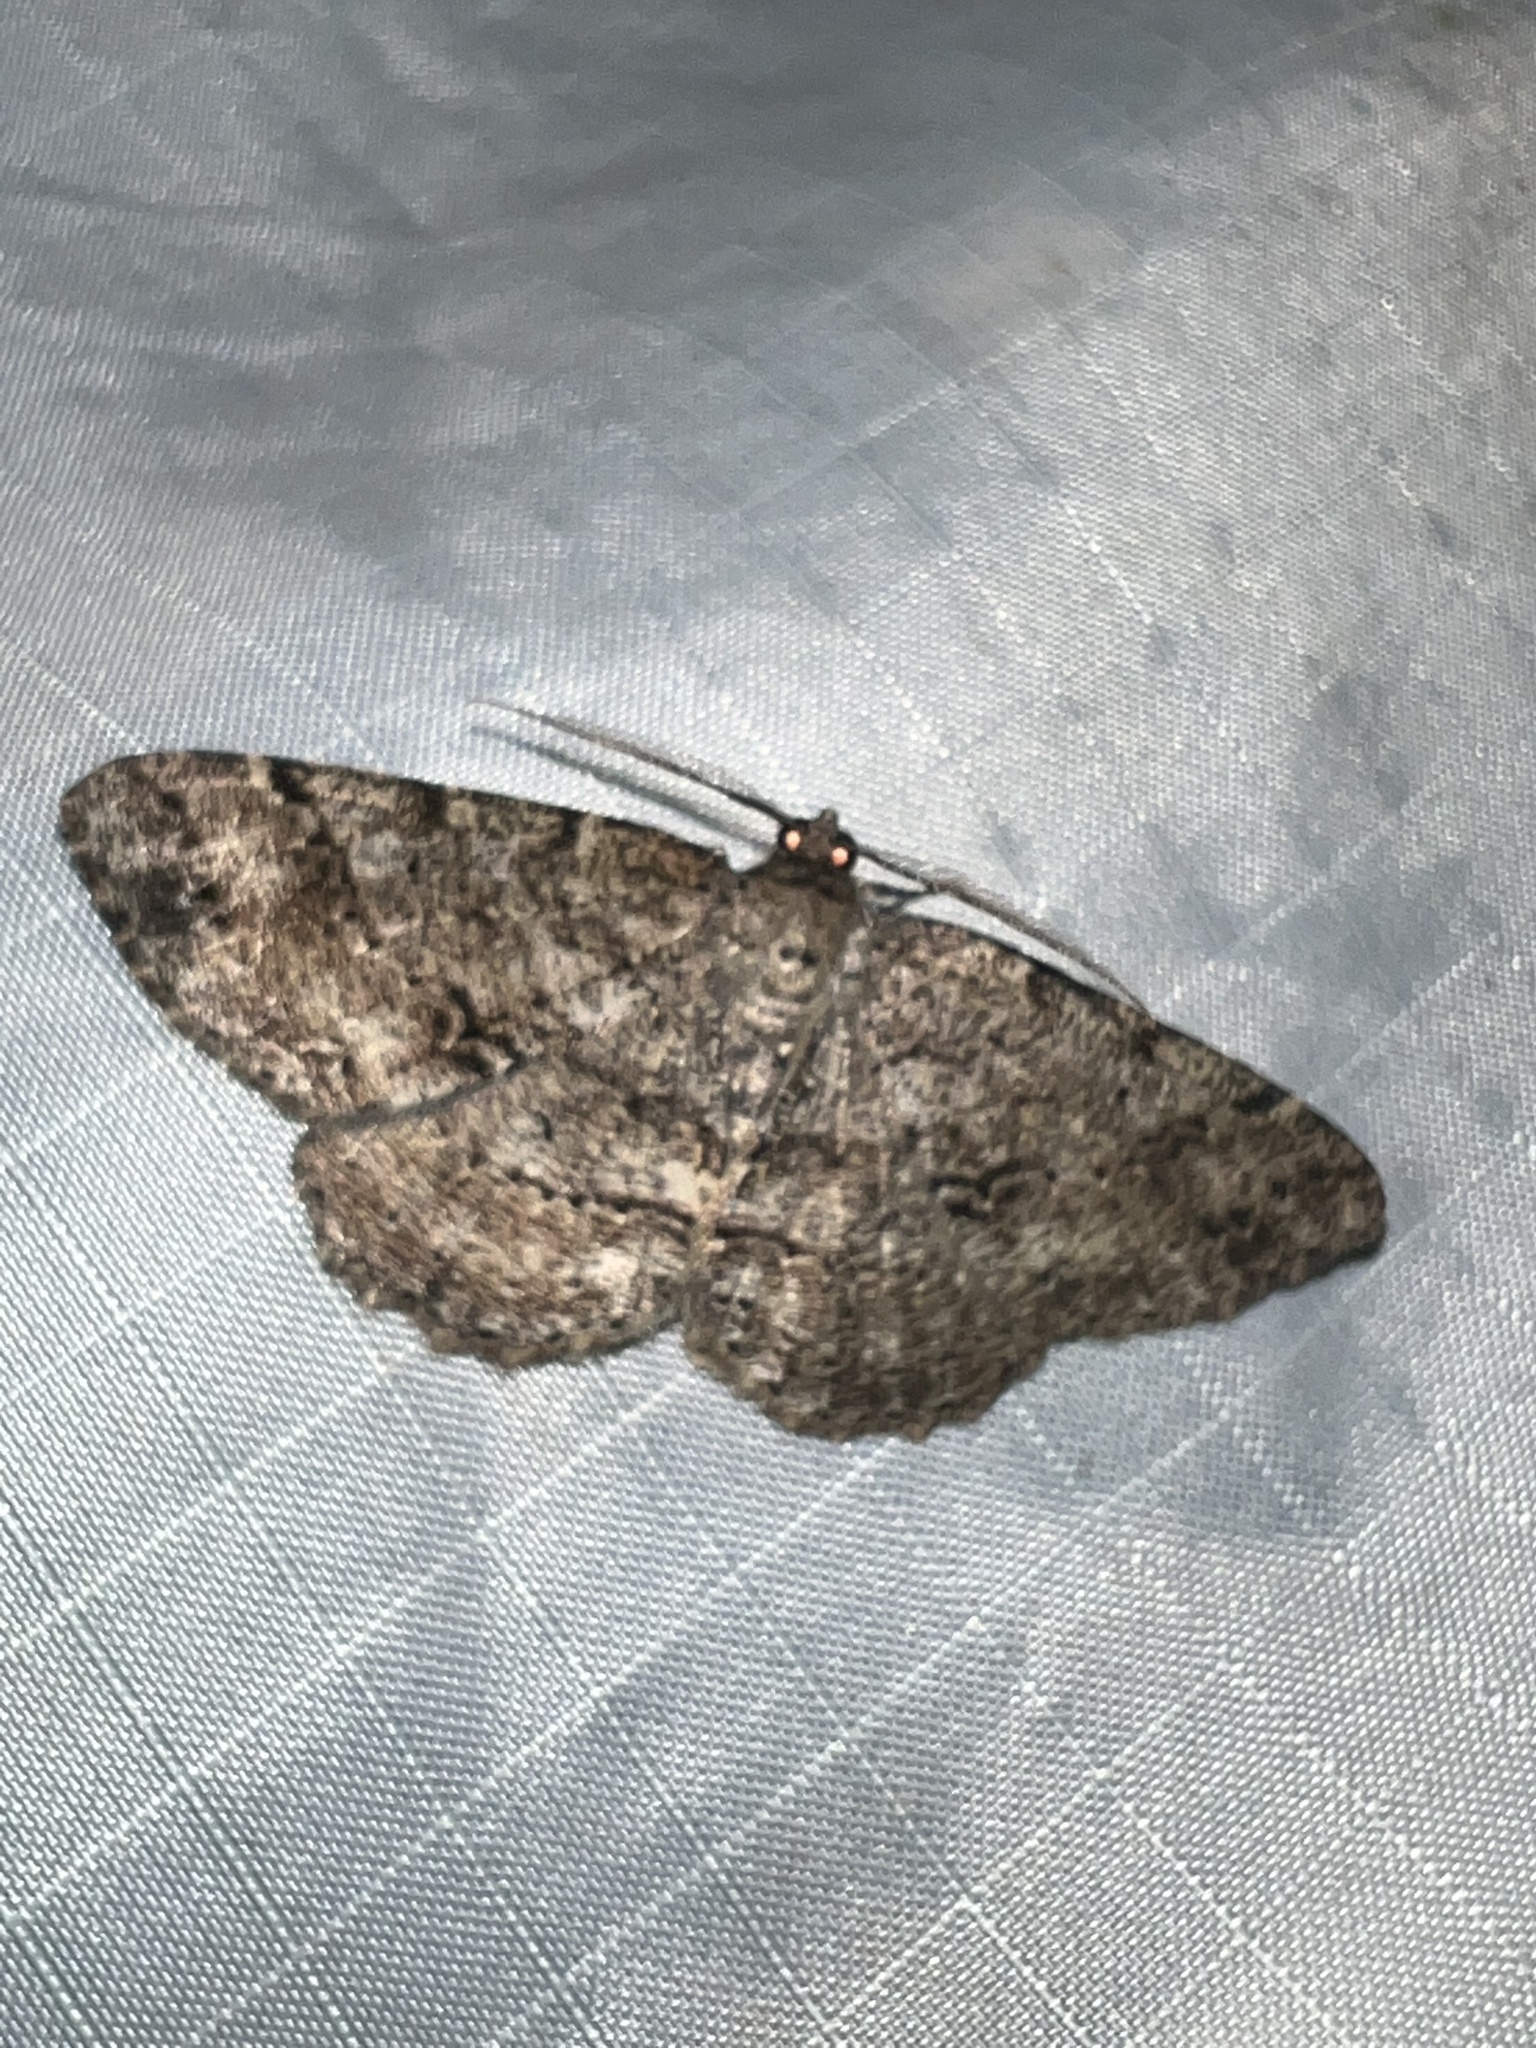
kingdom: Animalia
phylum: Arthropoda
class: Insecta
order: Lepidoptera
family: Geometridae
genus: Melanolophia
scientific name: Melanolophia canadaria
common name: Canadian melanolophia
